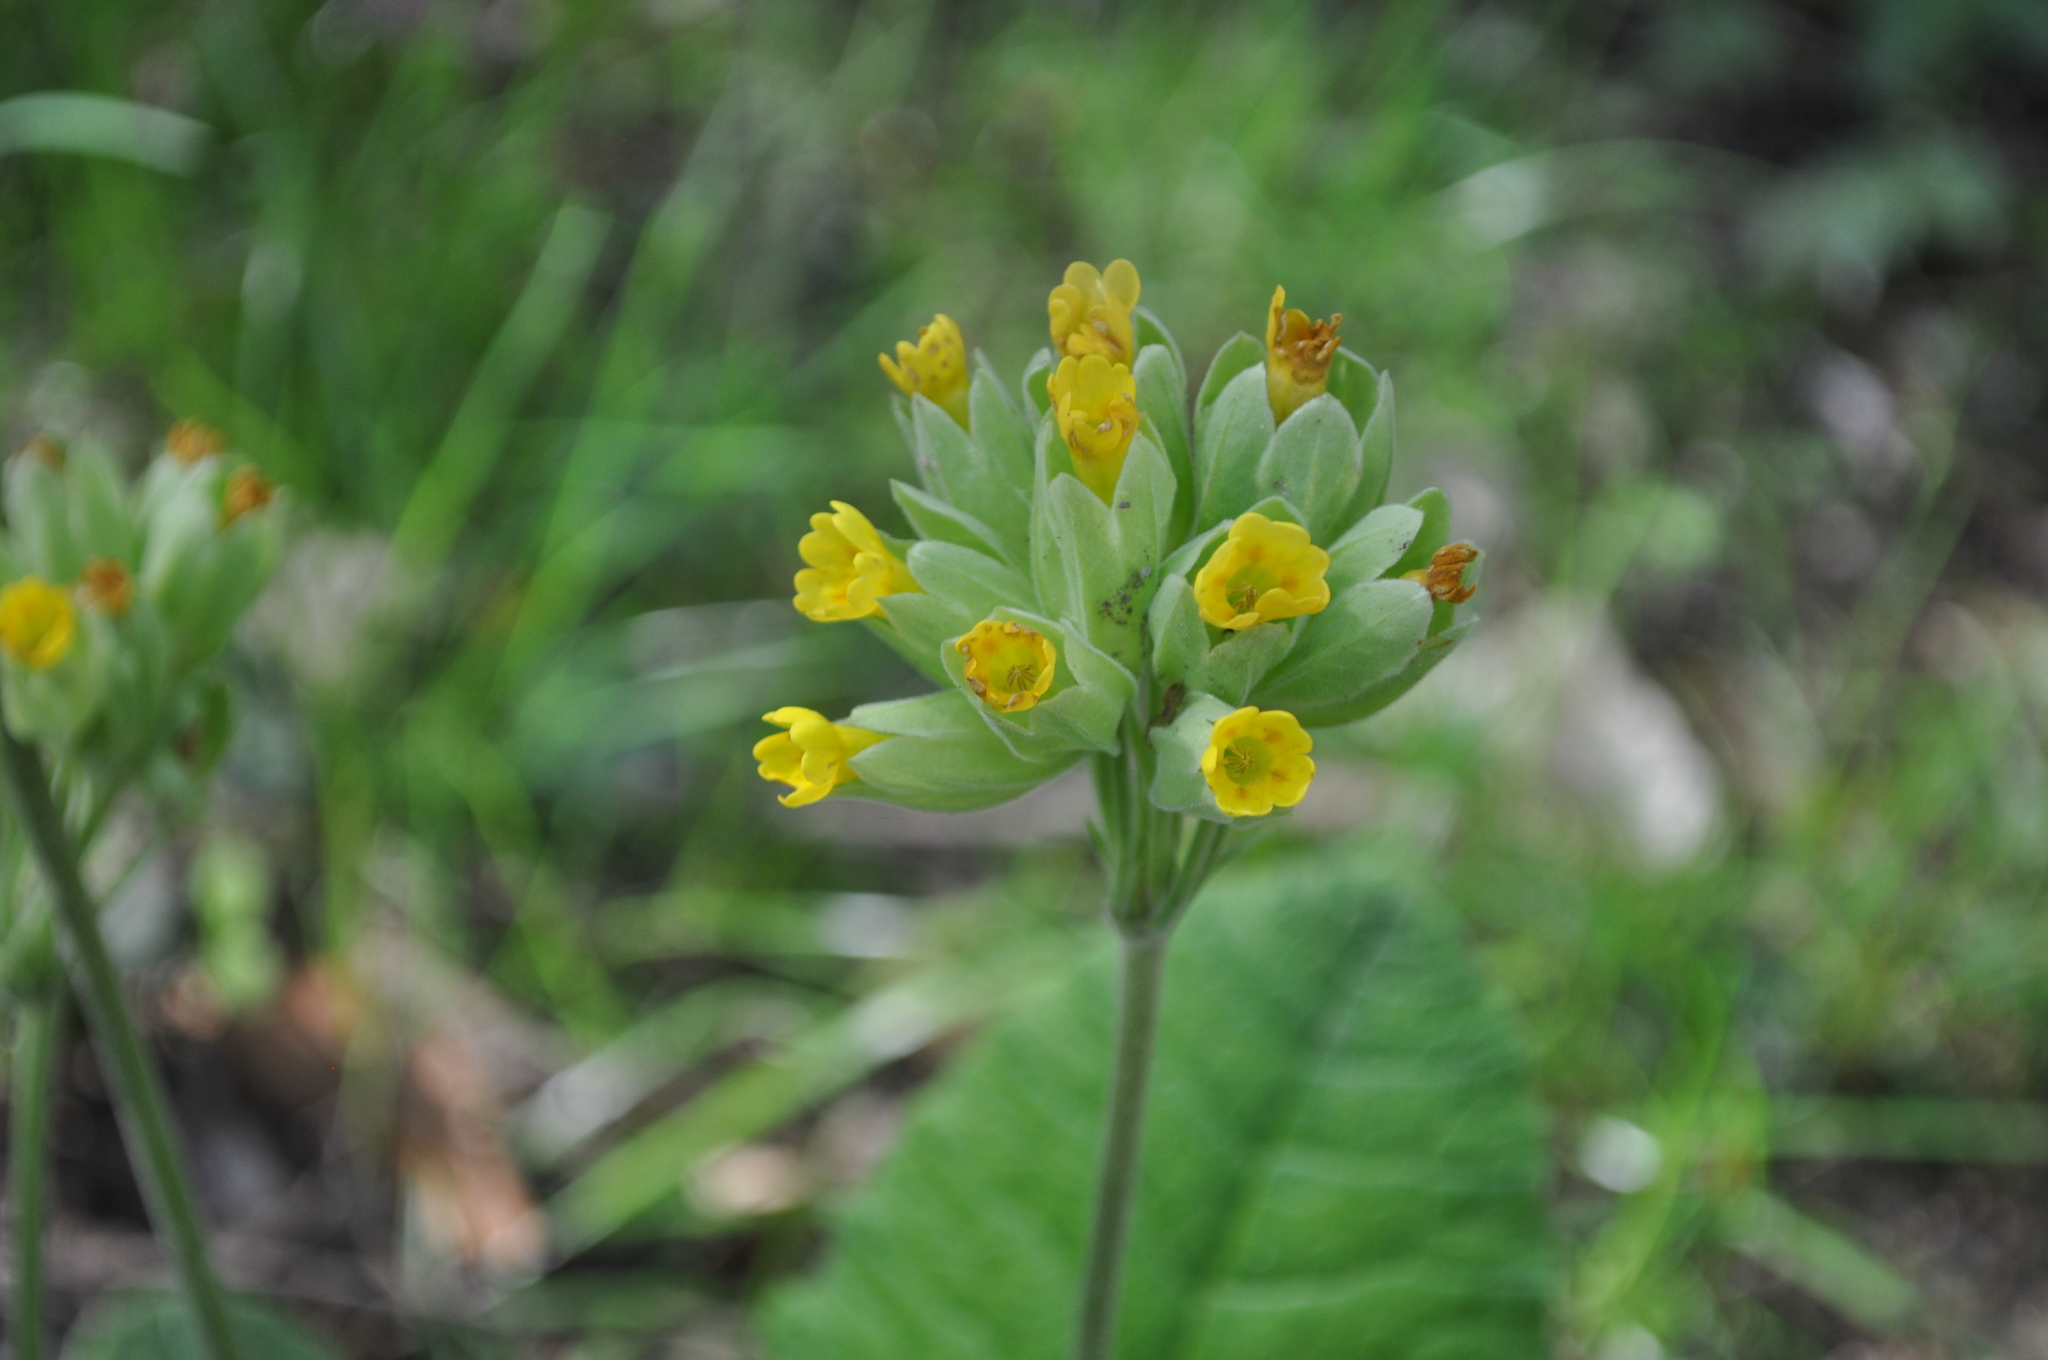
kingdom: Plantae
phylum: Tracheophyta
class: Magnoliopsida
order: Ericales
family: Primulaceae
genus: Primula
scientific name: Primula veris
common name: Cowslip
